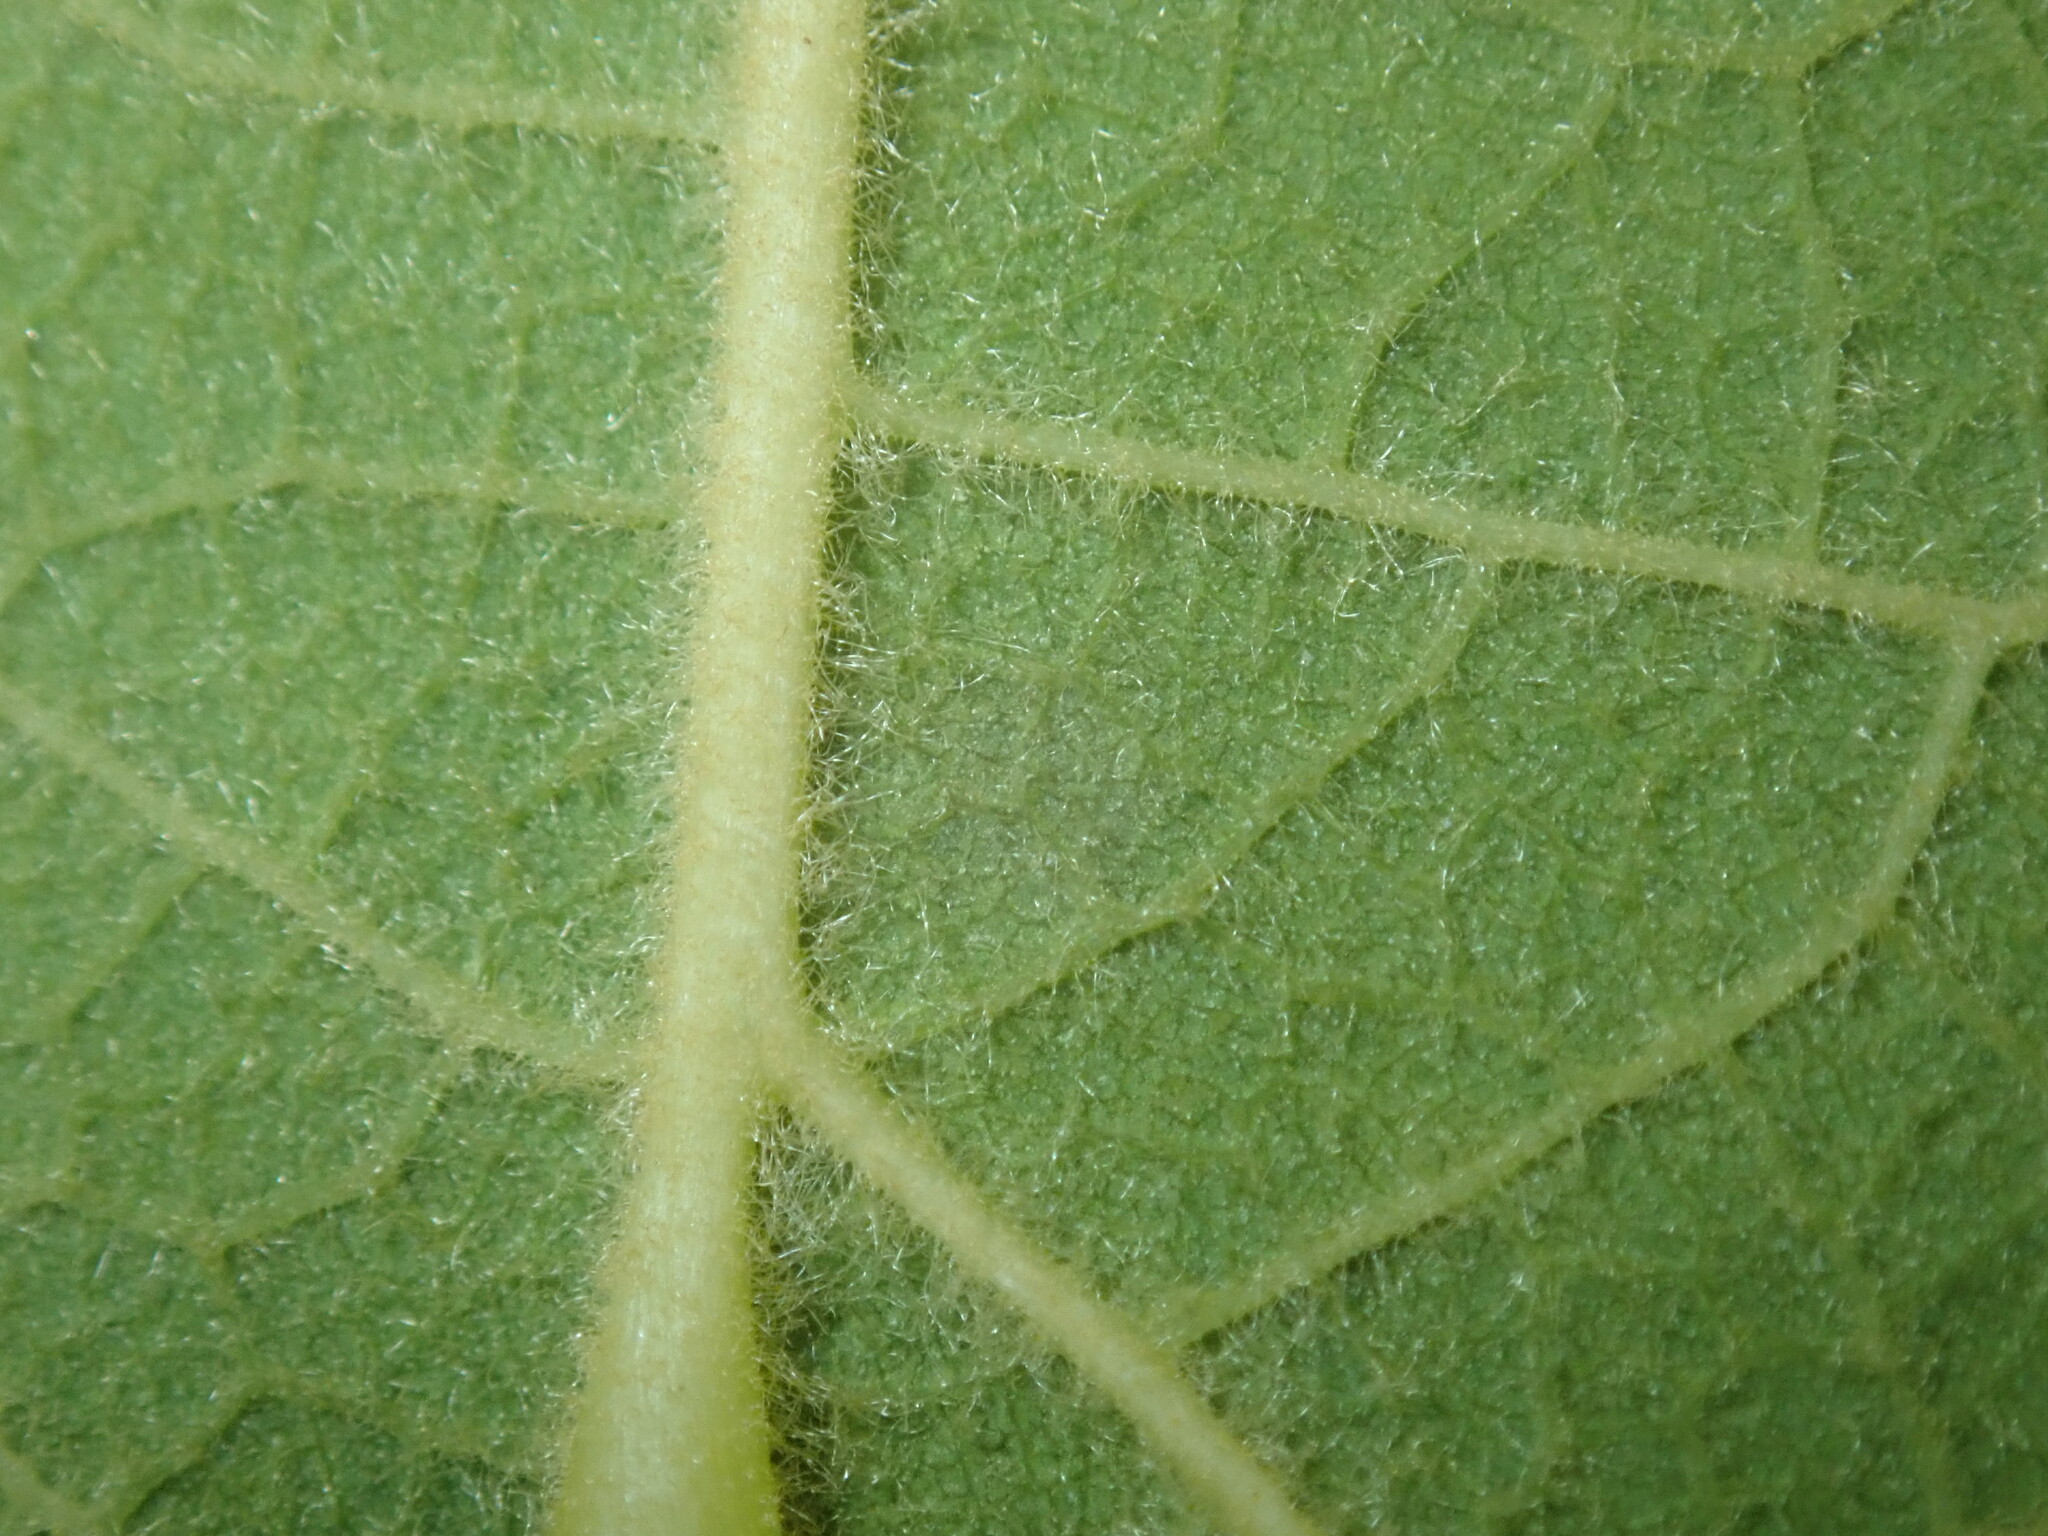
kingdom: Plantae
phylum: Tracheophyta
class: Magnoliopsida
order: Lamiales
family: Lamiaceae
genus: Gmelina
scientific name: Gmelina leichhardtii
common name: Queensland-beech
